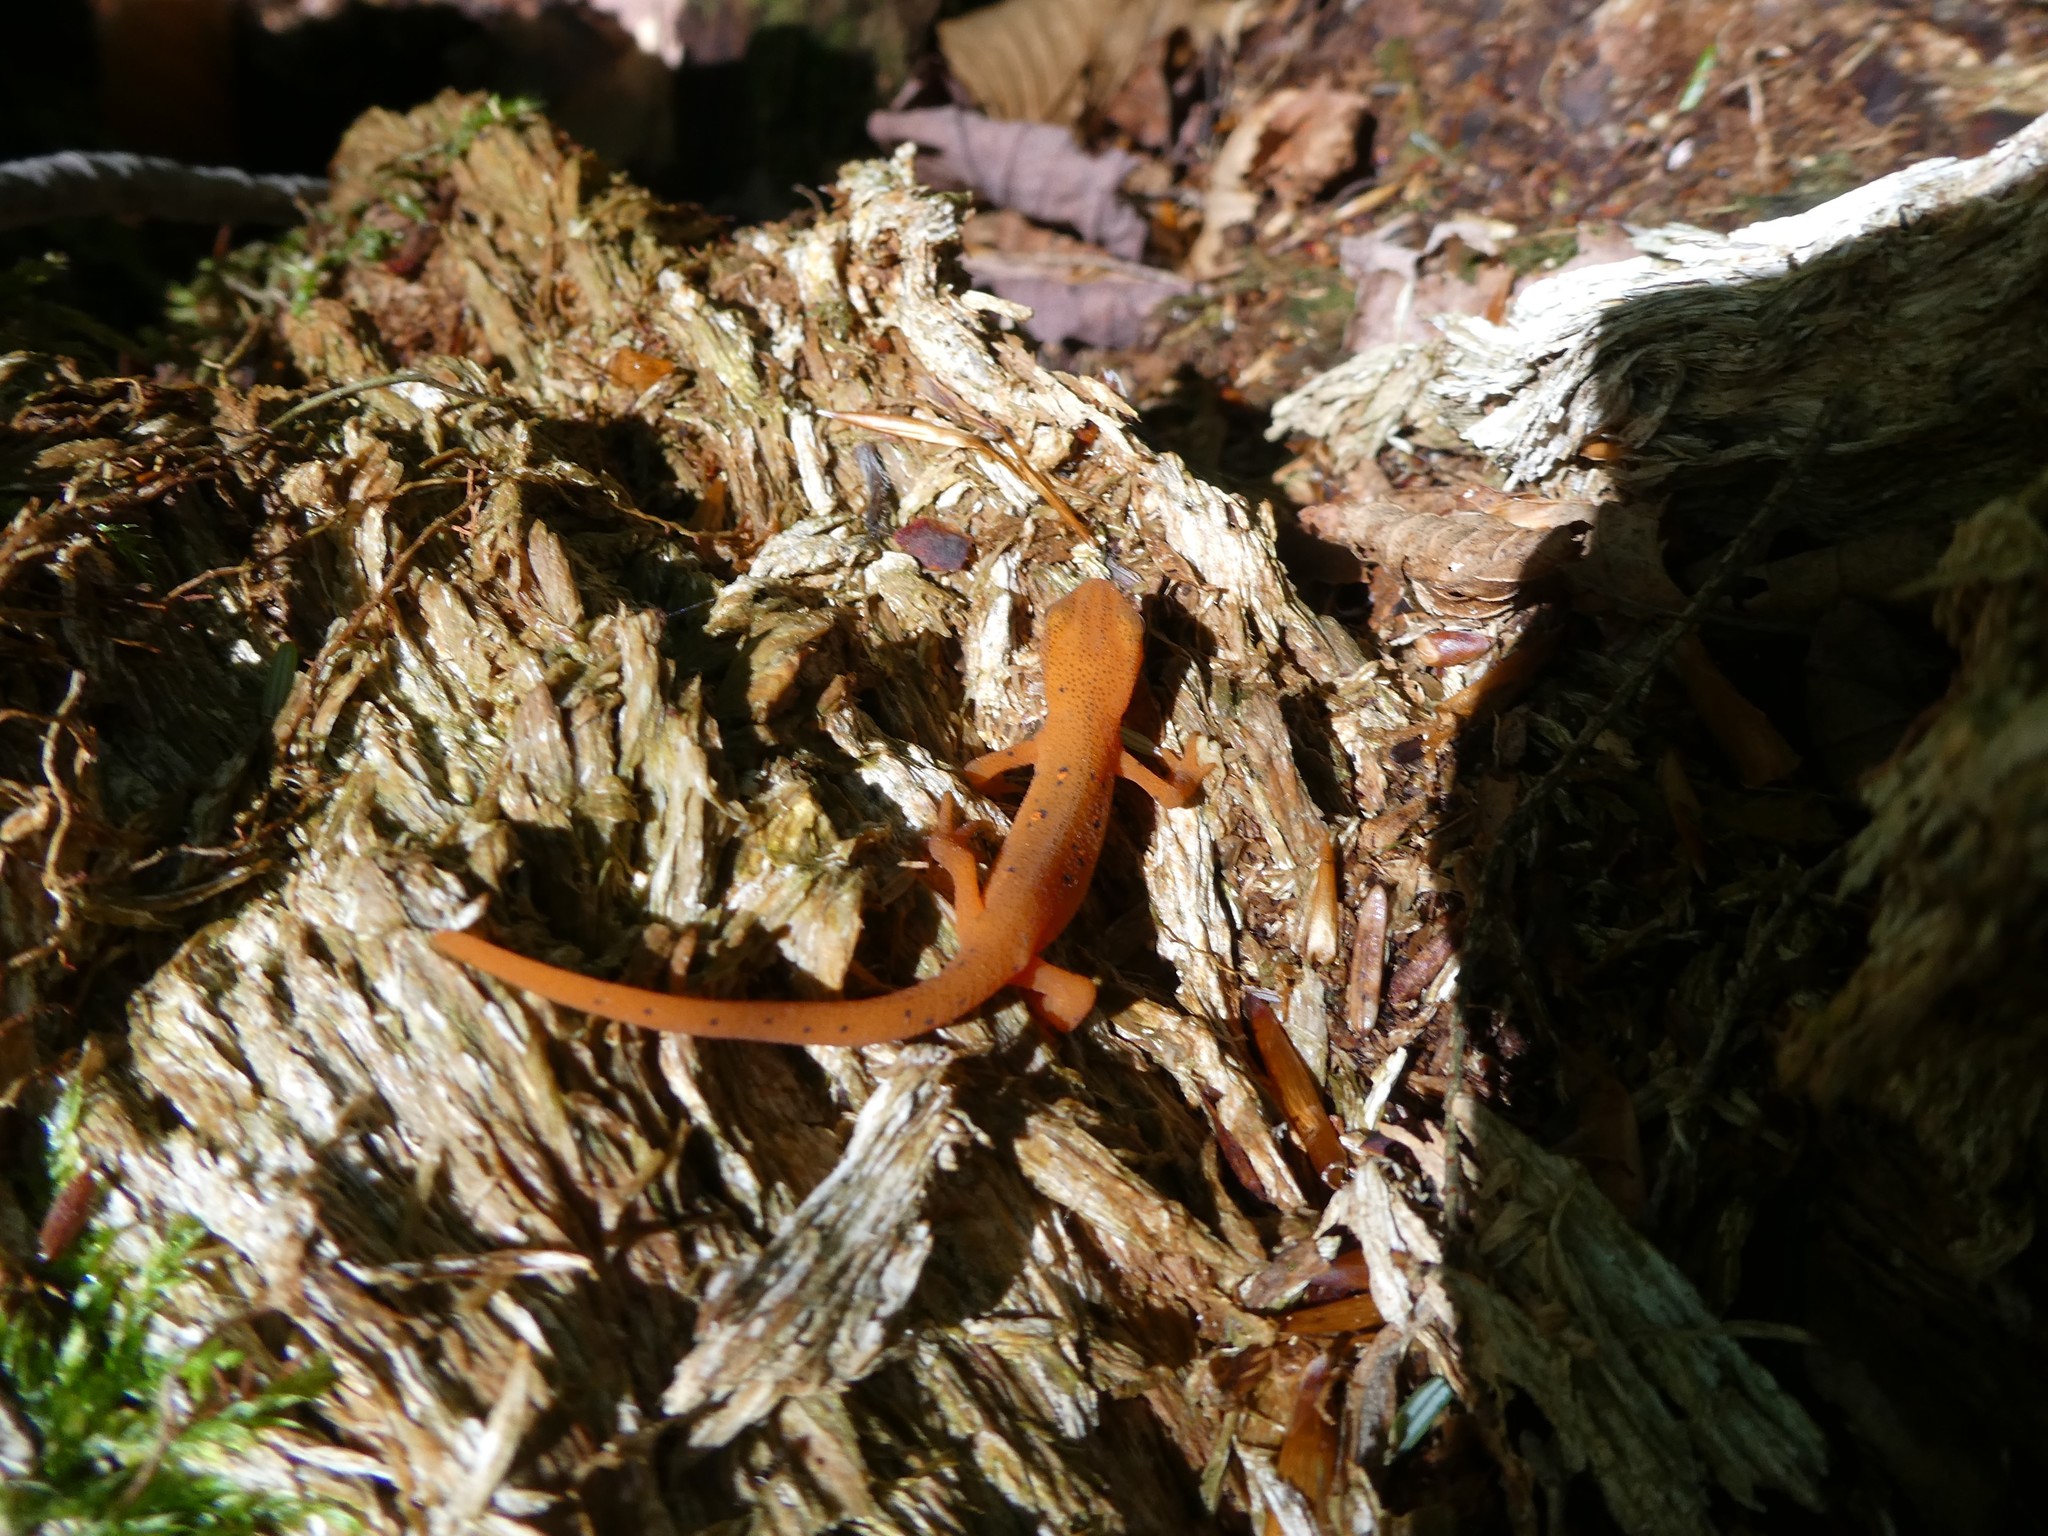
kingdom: Animalia
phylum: Chordata
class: Amphibia
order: Caudata
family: Salamandridae
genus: Notophthalmus
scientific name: Notophthalmus viridescens
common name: Eastern newt
